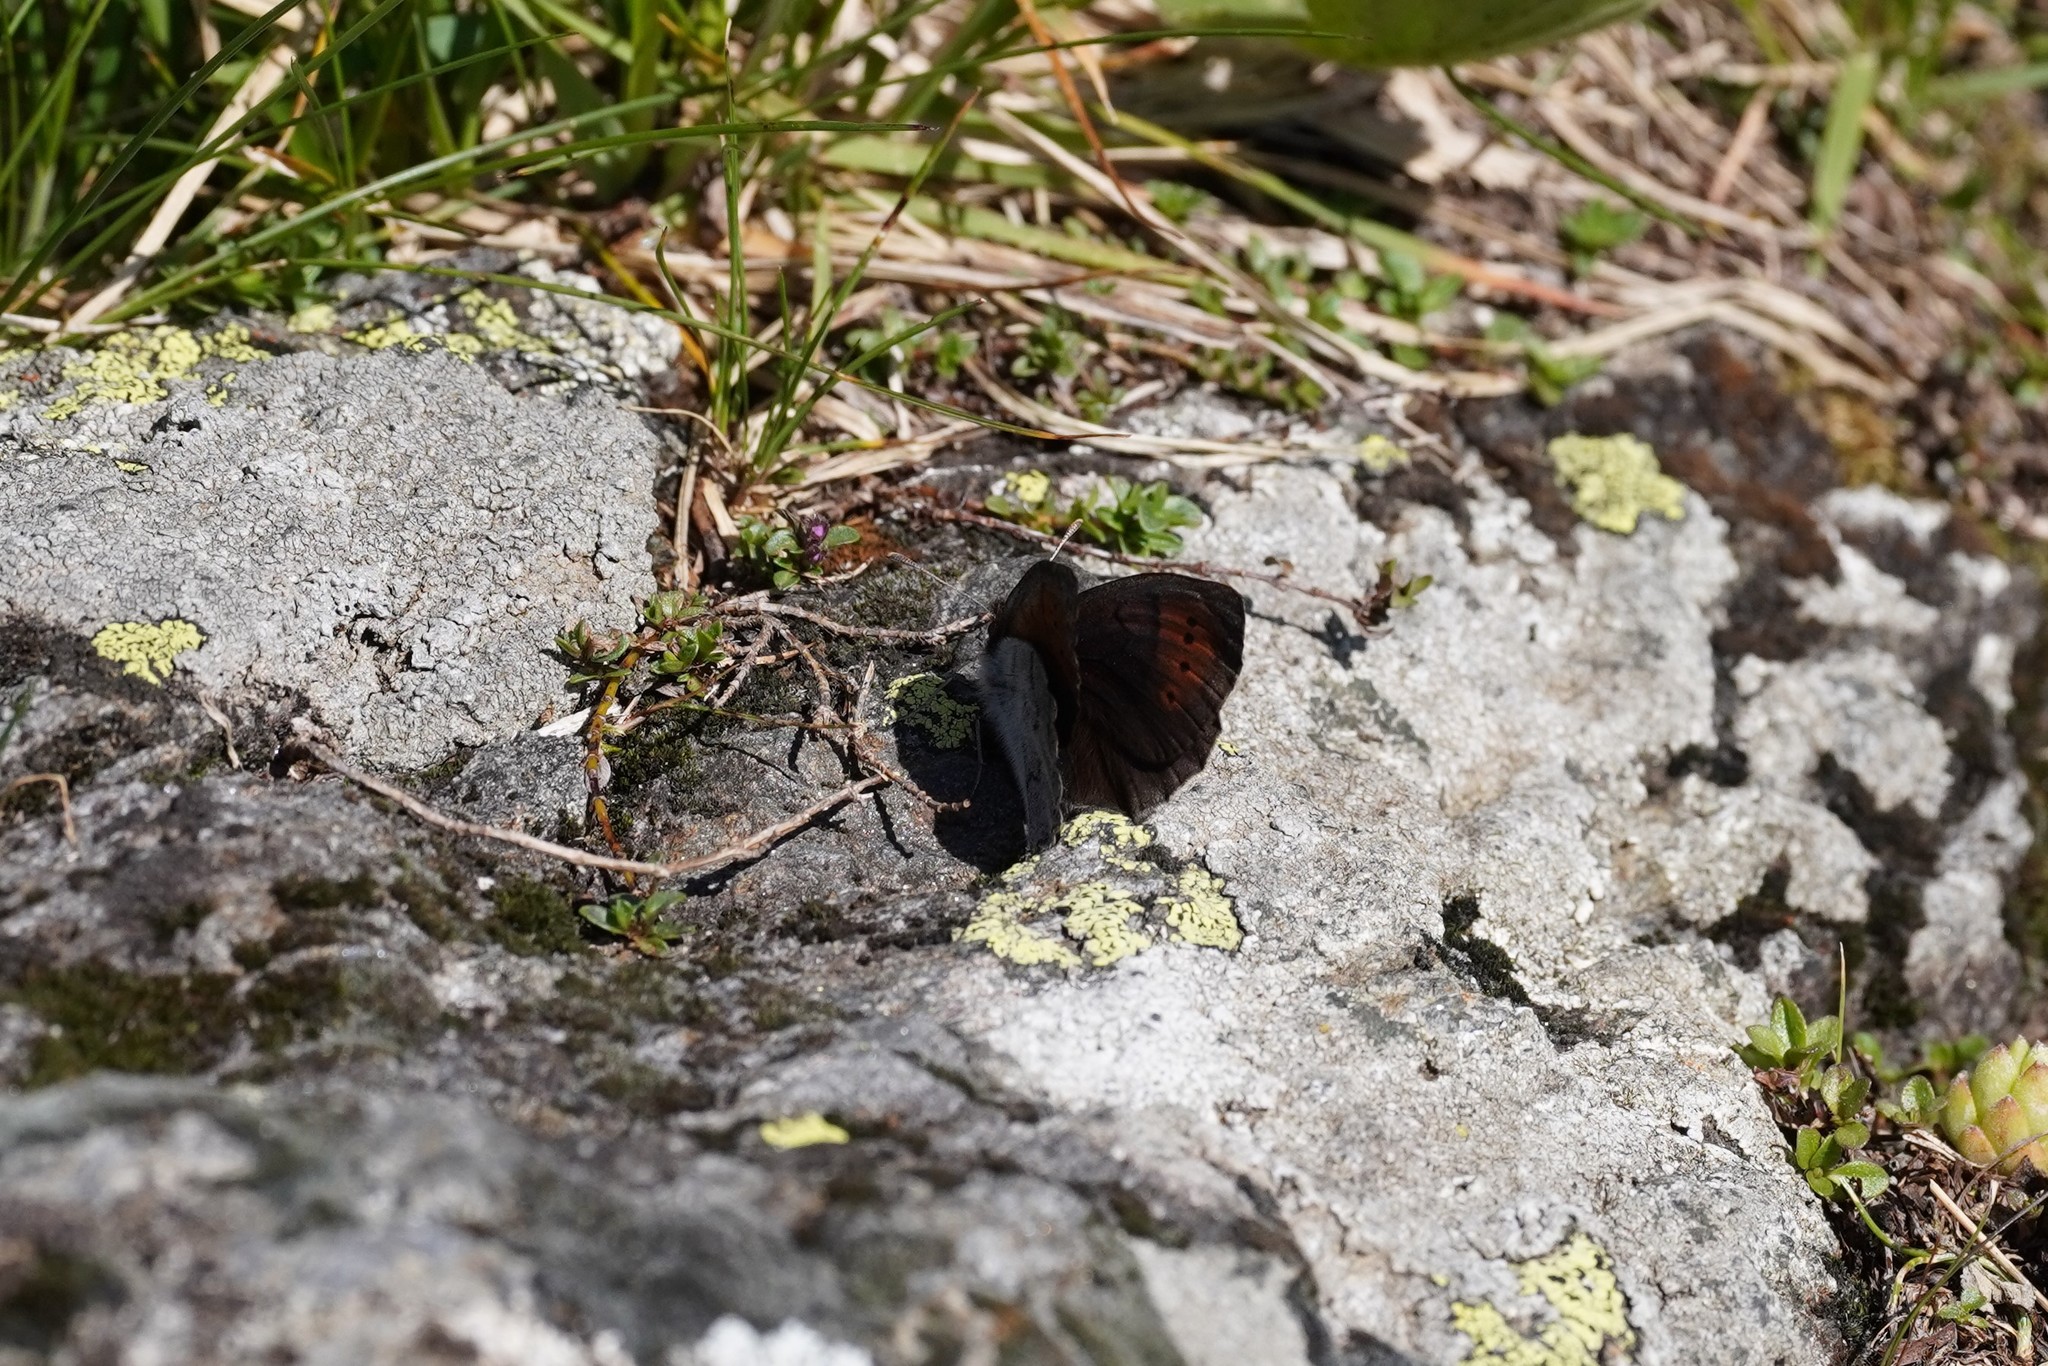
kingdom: Animalia
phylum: Arthropoda
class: Insecta
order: Lepidoptera
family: Nymphalidae
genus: Erebia
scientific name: Erebia pandrose
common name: Dewy ringlet
